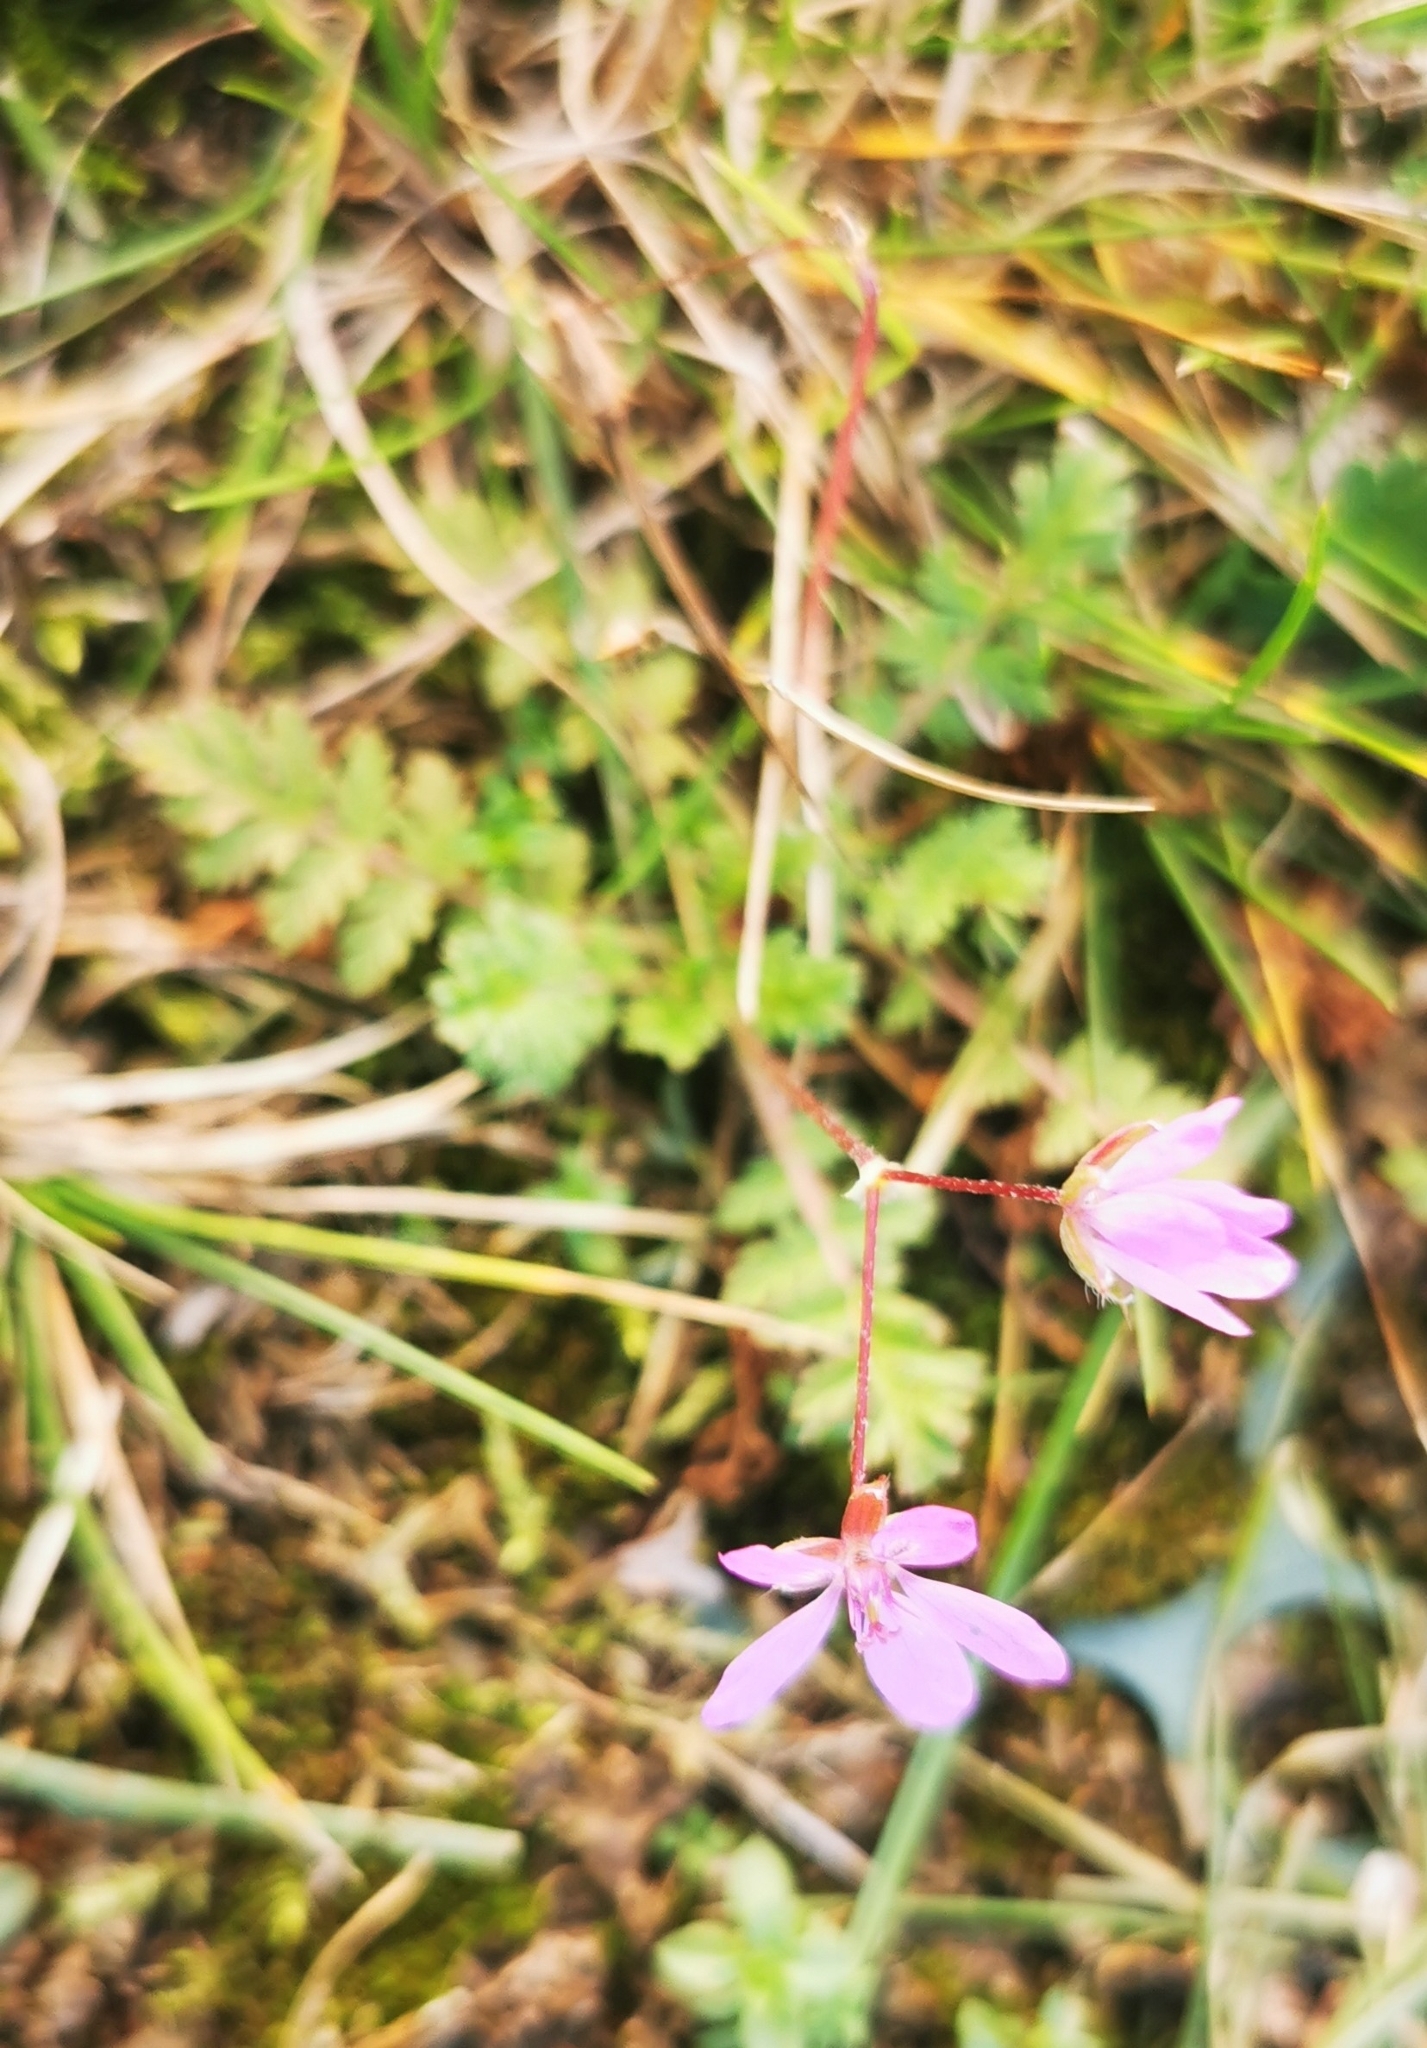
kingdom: Plantae
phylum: Tracheophyta
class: Magnoliopsida
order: Geraniales
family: Geraniaceae
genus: Erodium
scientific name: Erodium cicutarium
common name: Common stork's-bill
